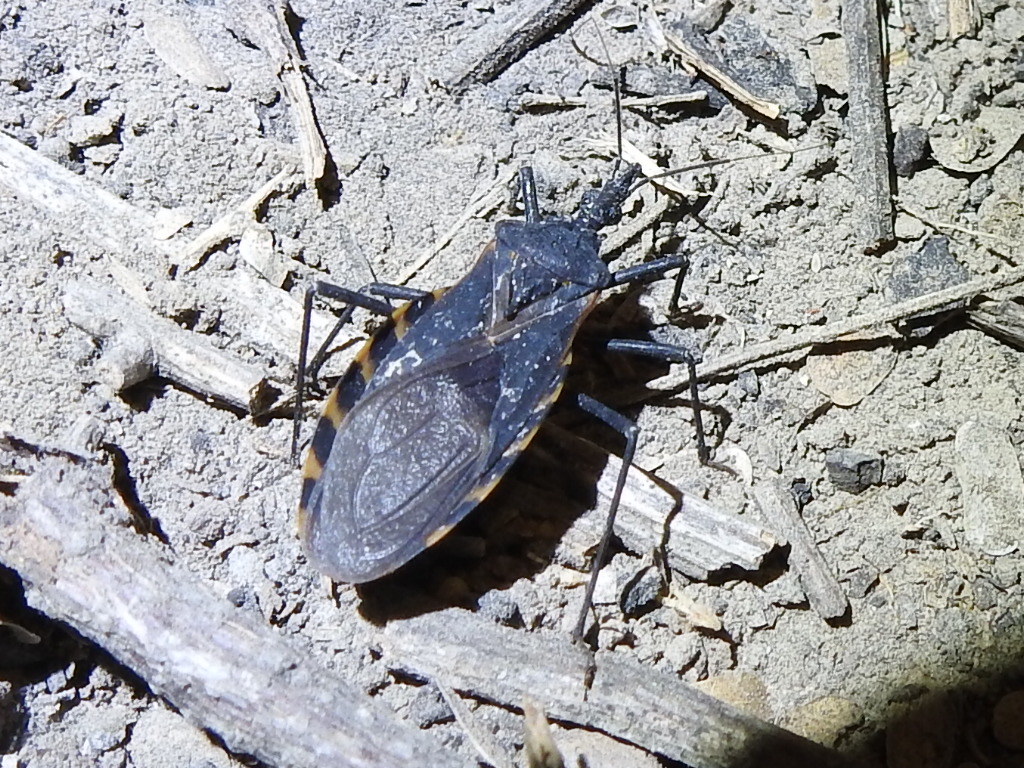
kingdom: Animalia
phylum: Arthropoda
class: Insecta
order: Hemiptera
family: Reduviidae
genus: Triatoma
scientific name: Triatoma gerstaeckeri
